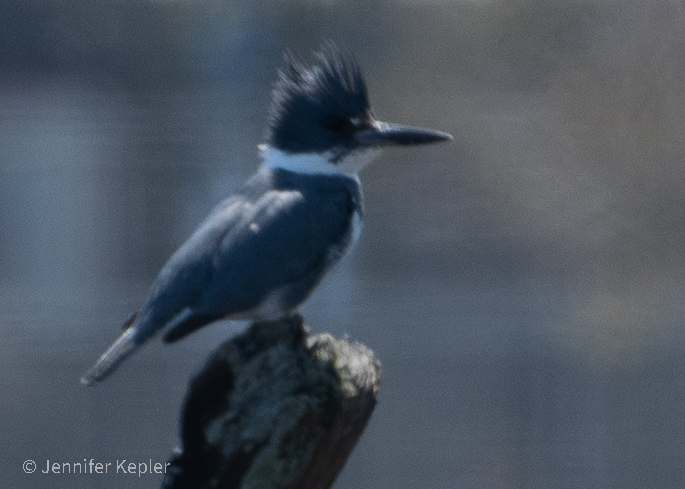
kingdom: Animalia
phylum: Chordata
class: Aves
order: Coraciiformes
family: Alcedinidae
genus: Megaceryle
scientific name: Megaceryle alcyon
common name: Belted kingfisher
